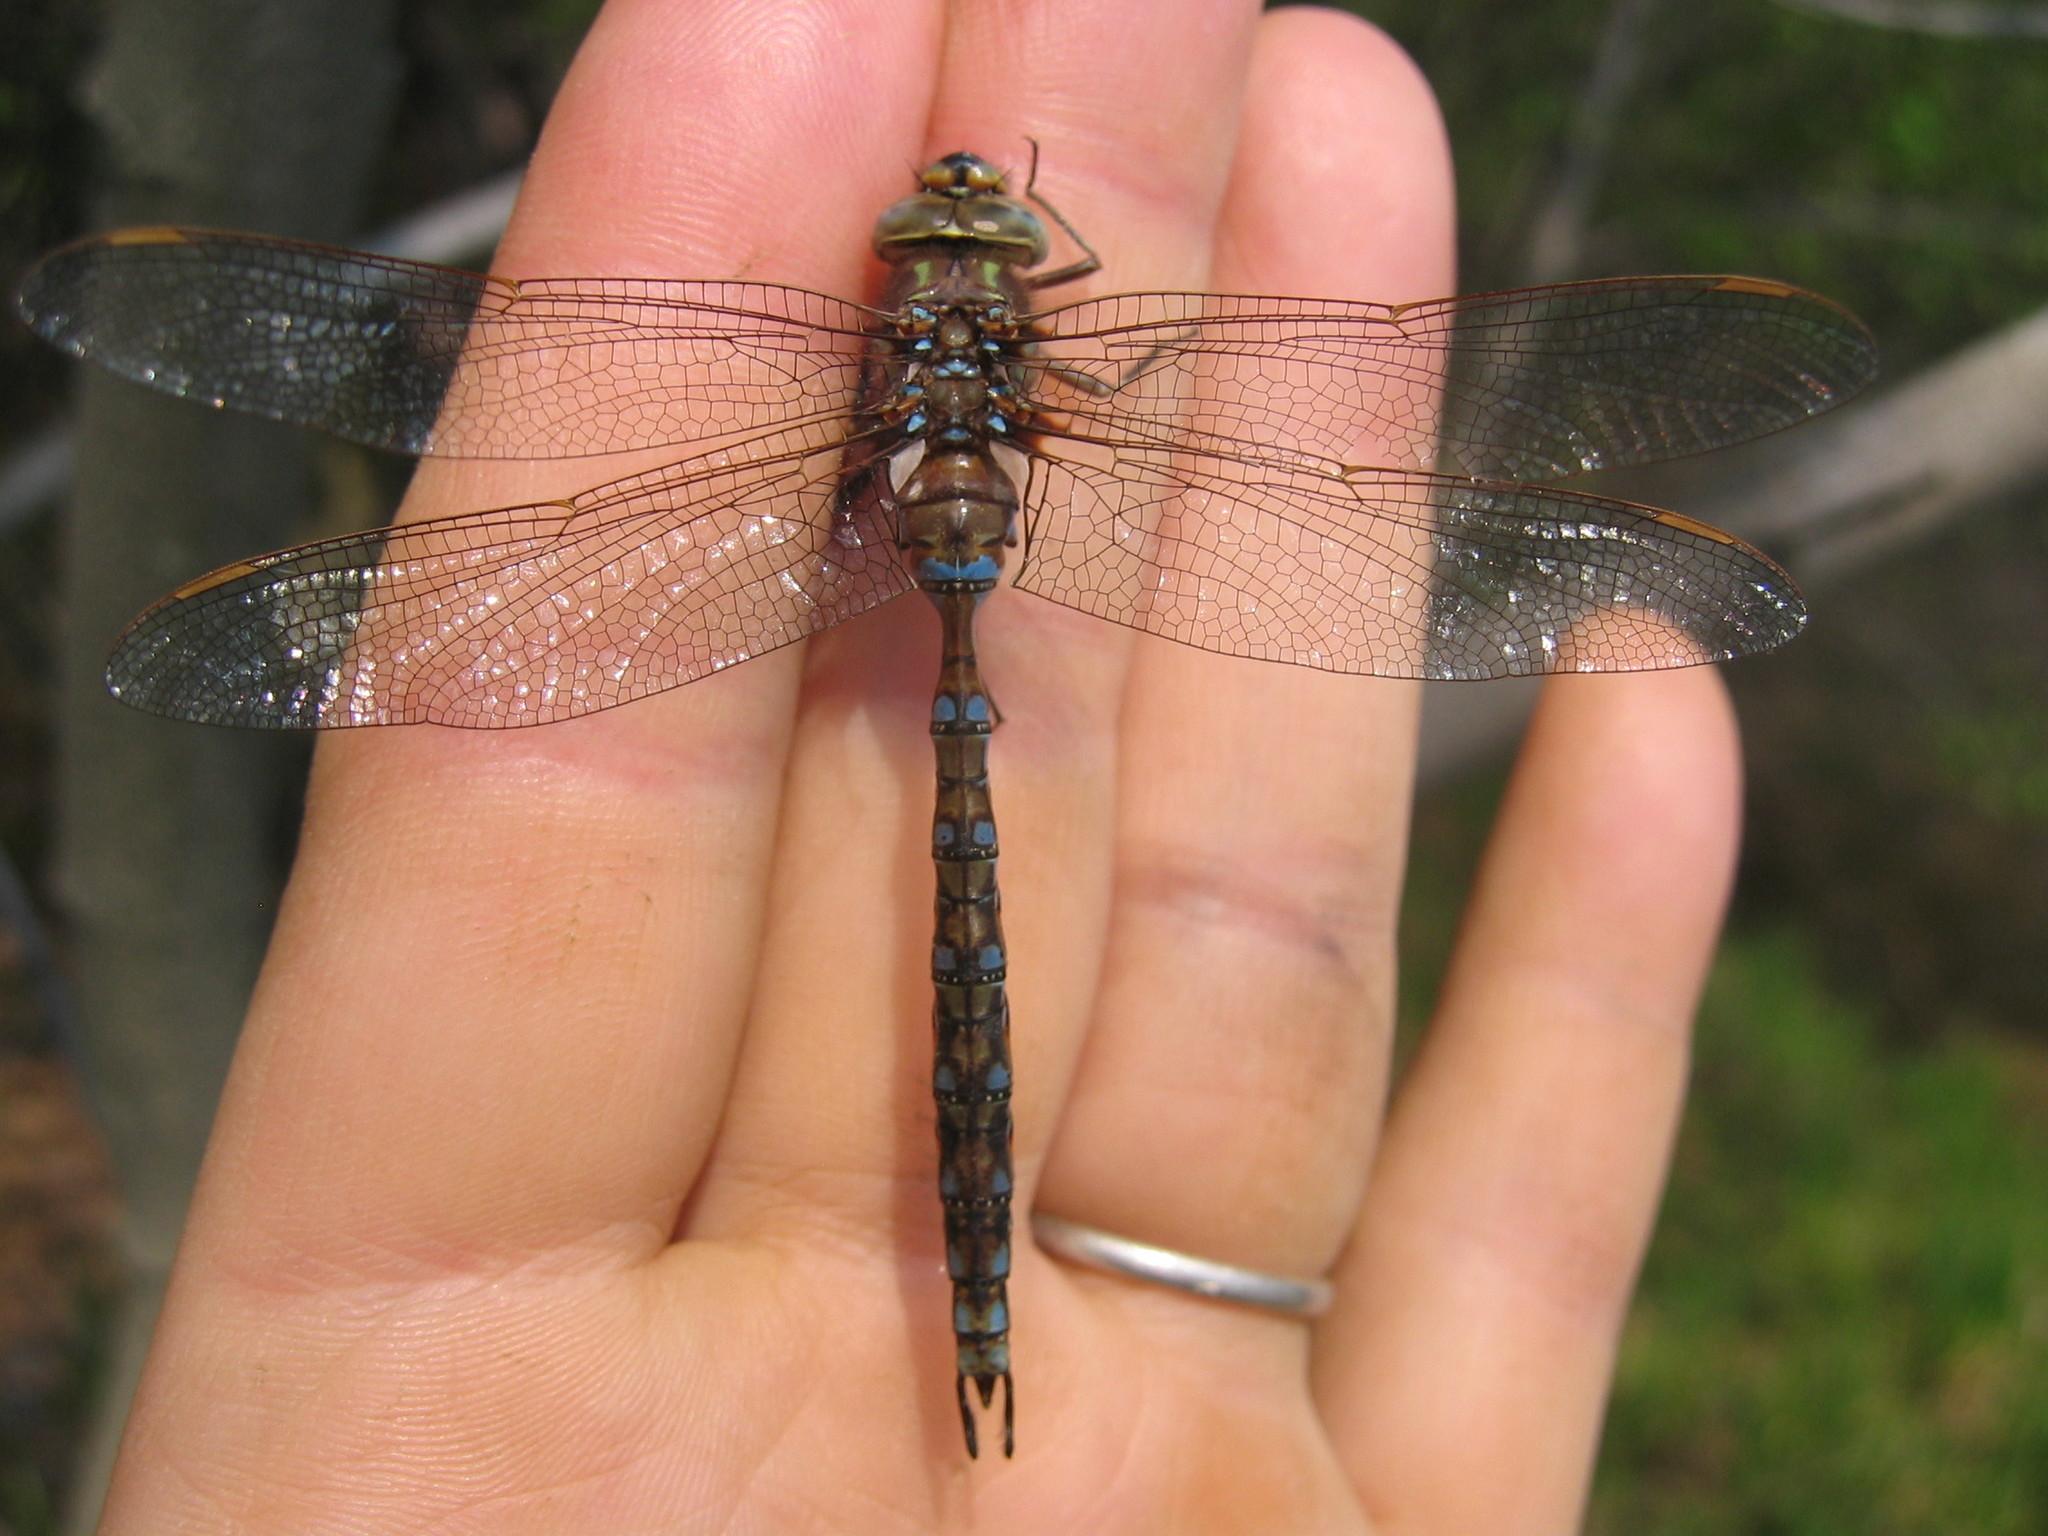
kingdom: Animalia
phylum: Arthropoda
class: Insecta
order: Odonata
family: Aeshnidae
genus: Basiaeschna
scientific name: Basiaeschna janata
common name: Springtime darner
